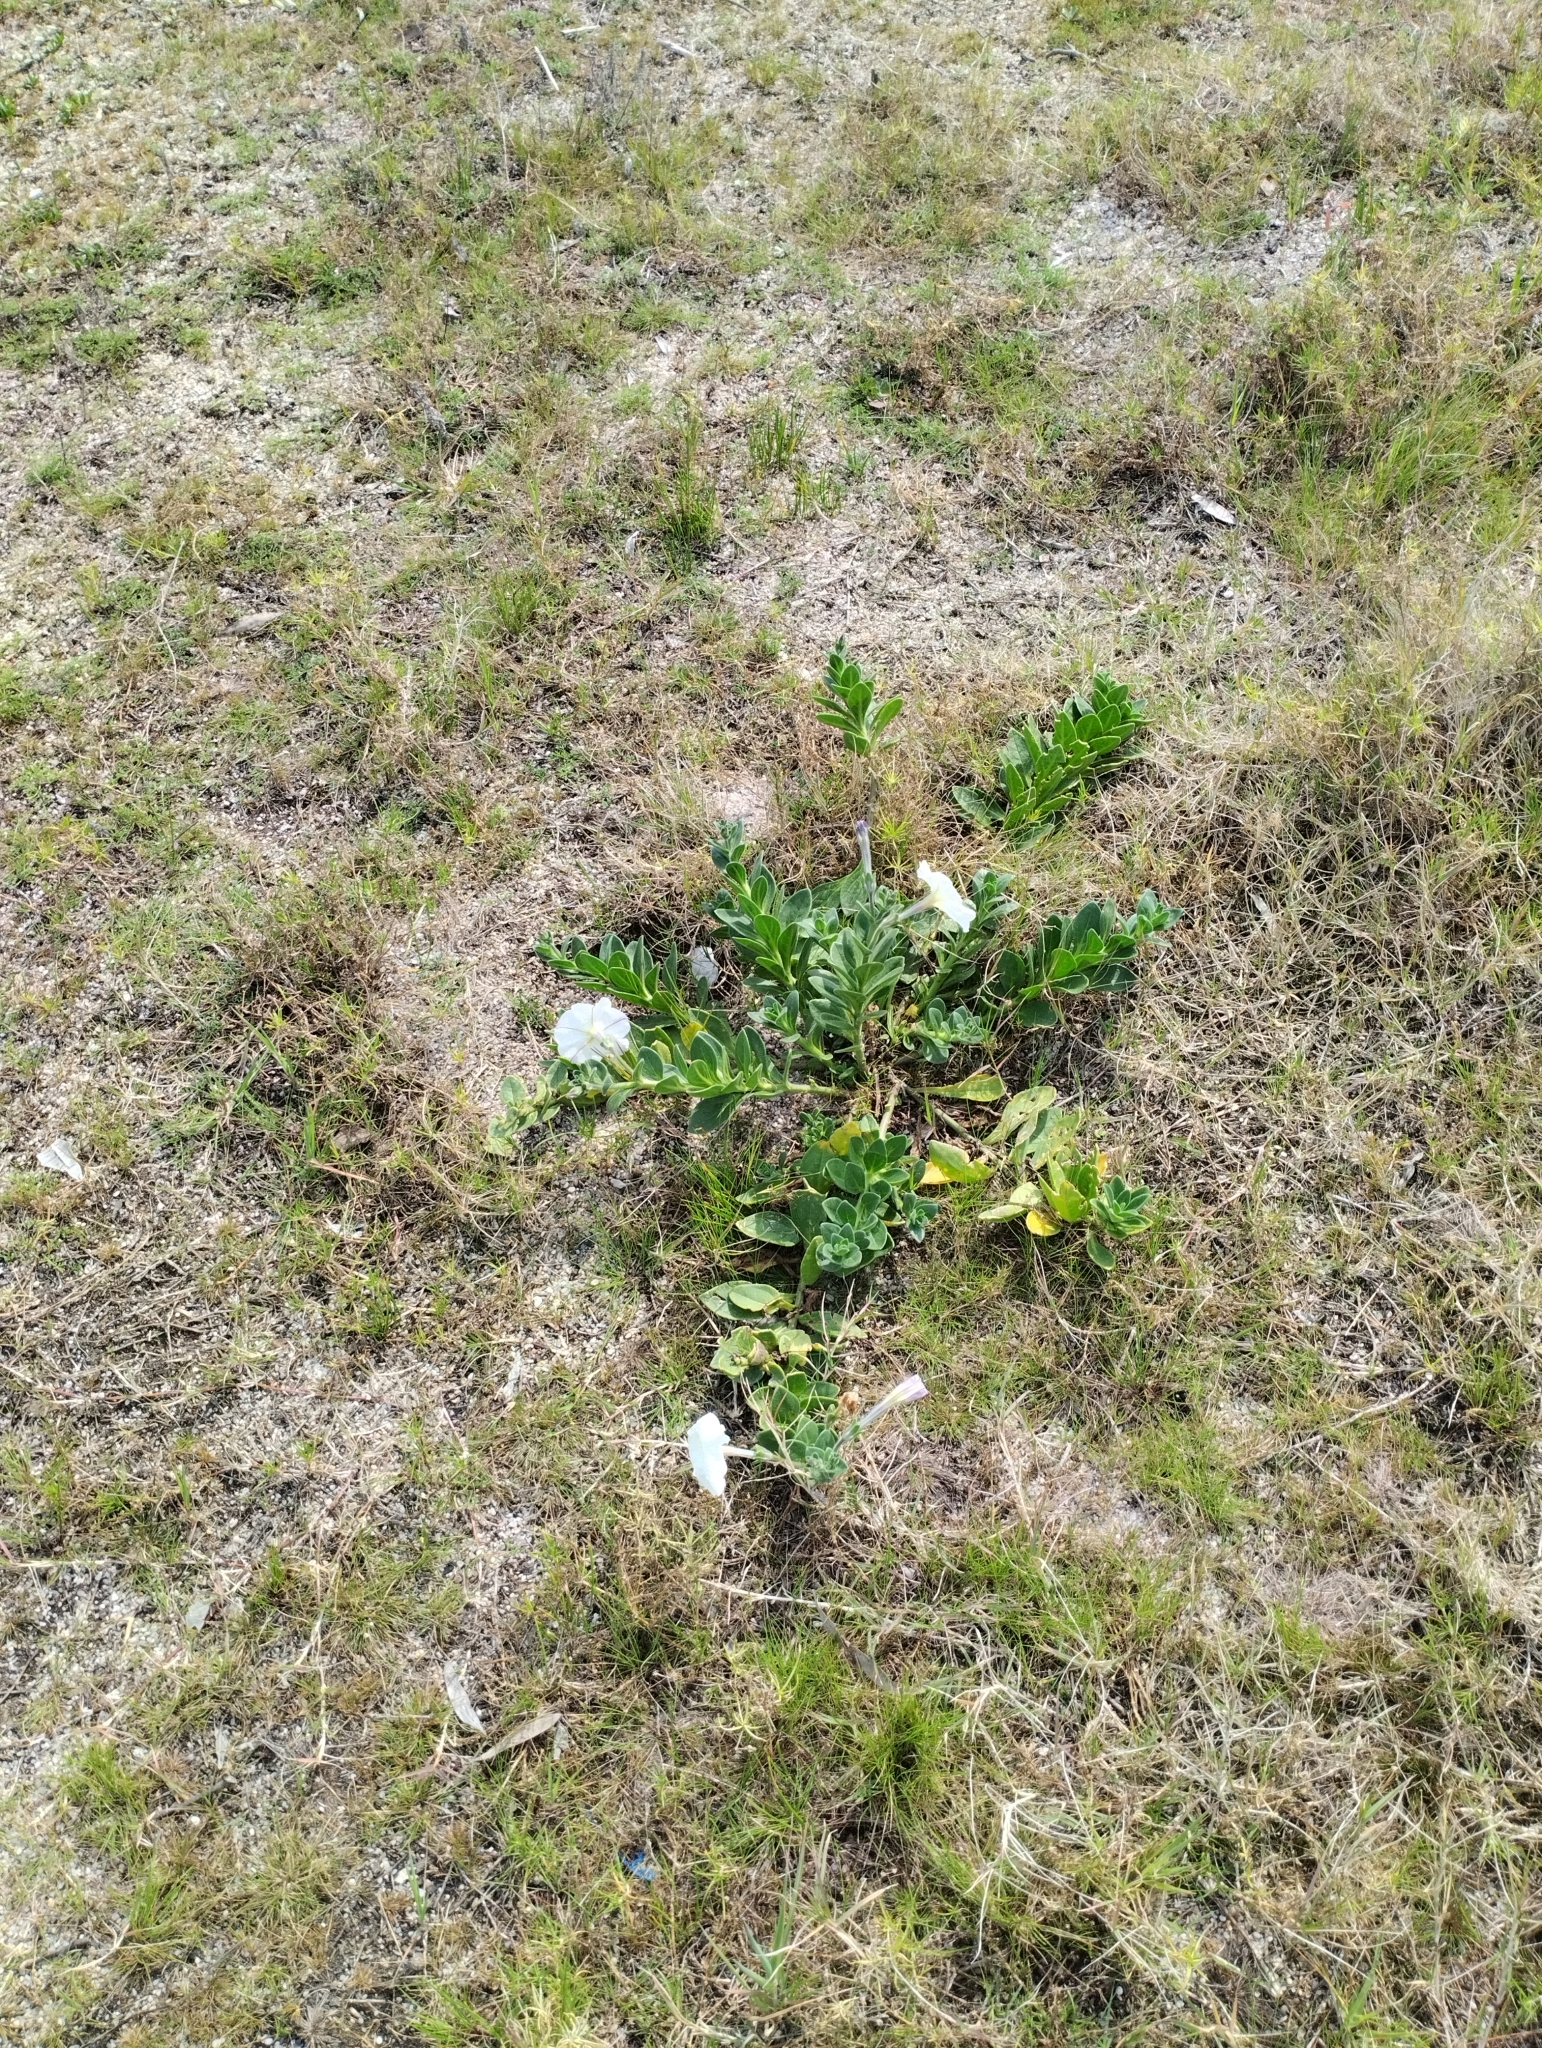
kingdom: Plantae
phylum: Tracheophyta
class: Magnoliopsida
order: Solanales
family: Solanaceae
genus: Petunia
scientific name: Petunia axillaris
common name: Large white petunia
